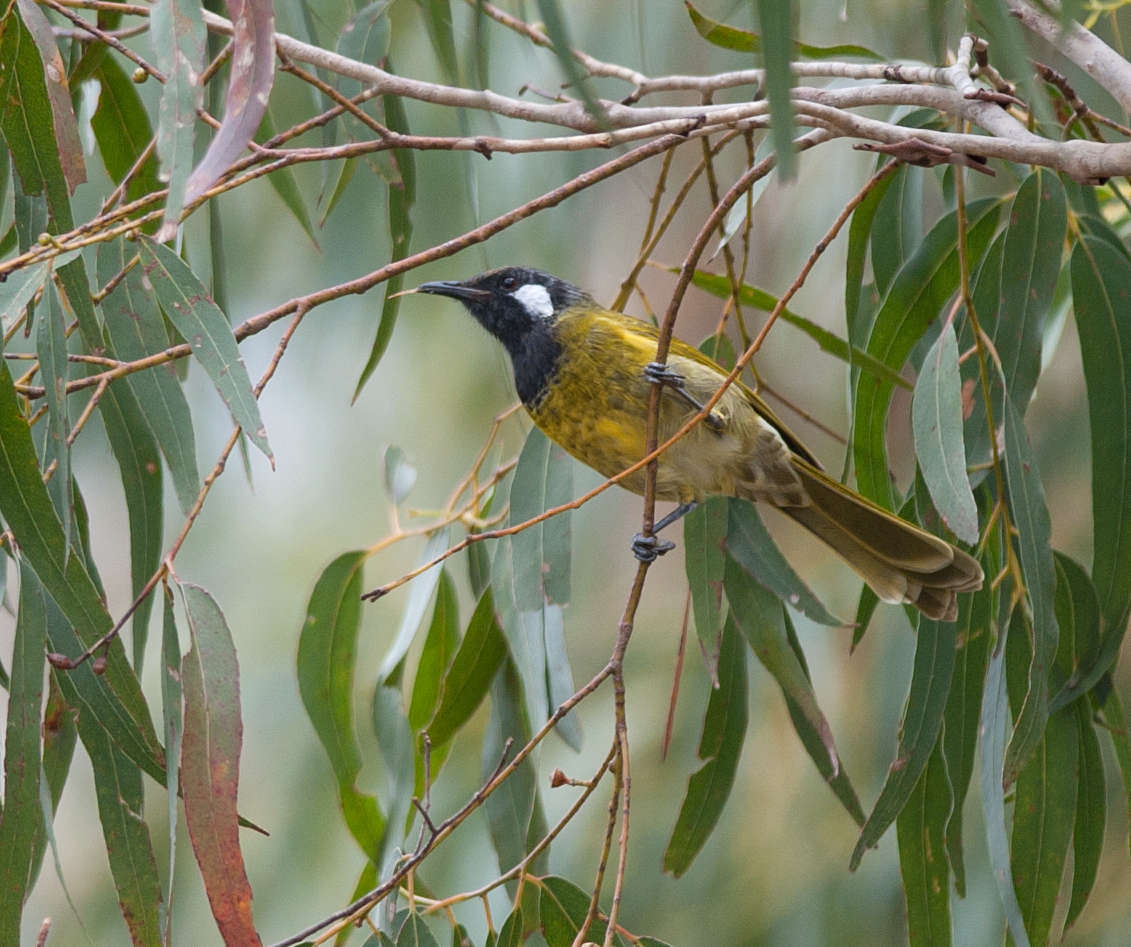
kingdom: Animalia
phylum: Chordata
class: Aves
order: Passeriformes
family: Meliphagidae
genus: Nesoptilotis
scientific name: Nesoptilotis leucotis
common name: White-eared honeyeater
